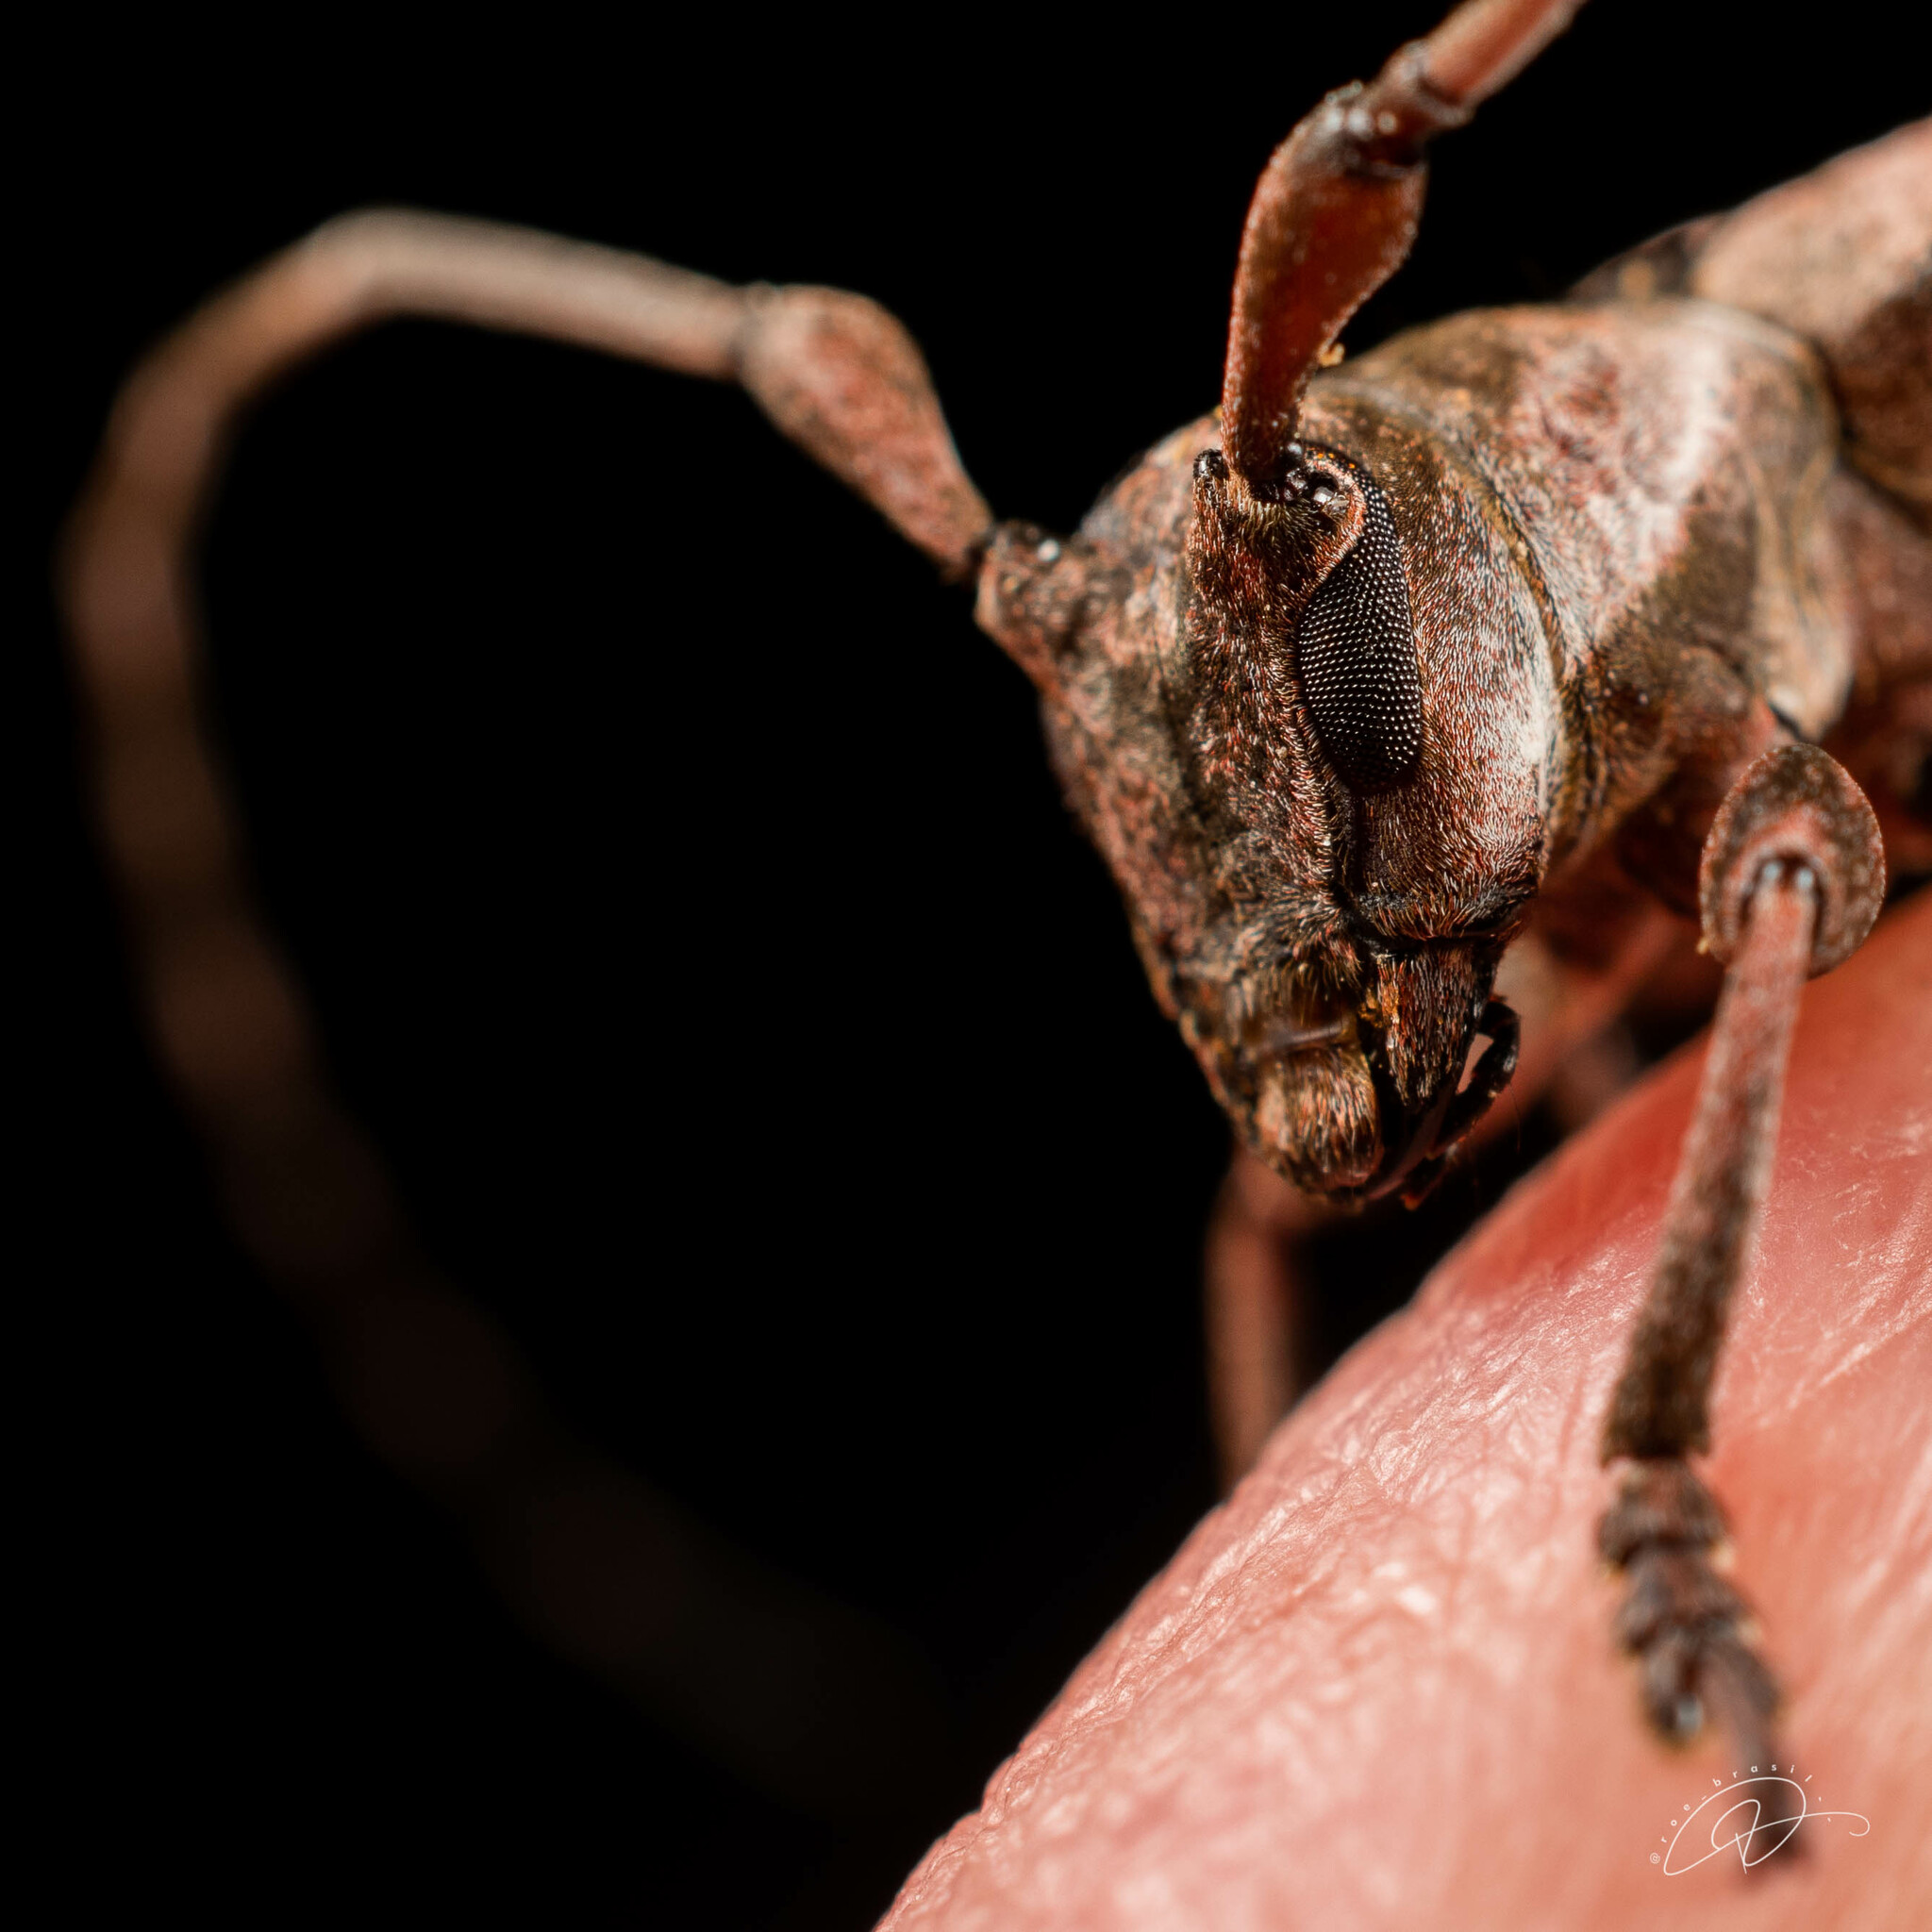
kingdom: Animalia
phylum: Arthropoda
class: Insecta
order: Coleoptera
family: Cerambycidae
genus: Chitron
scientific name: Chitron mniszechii
